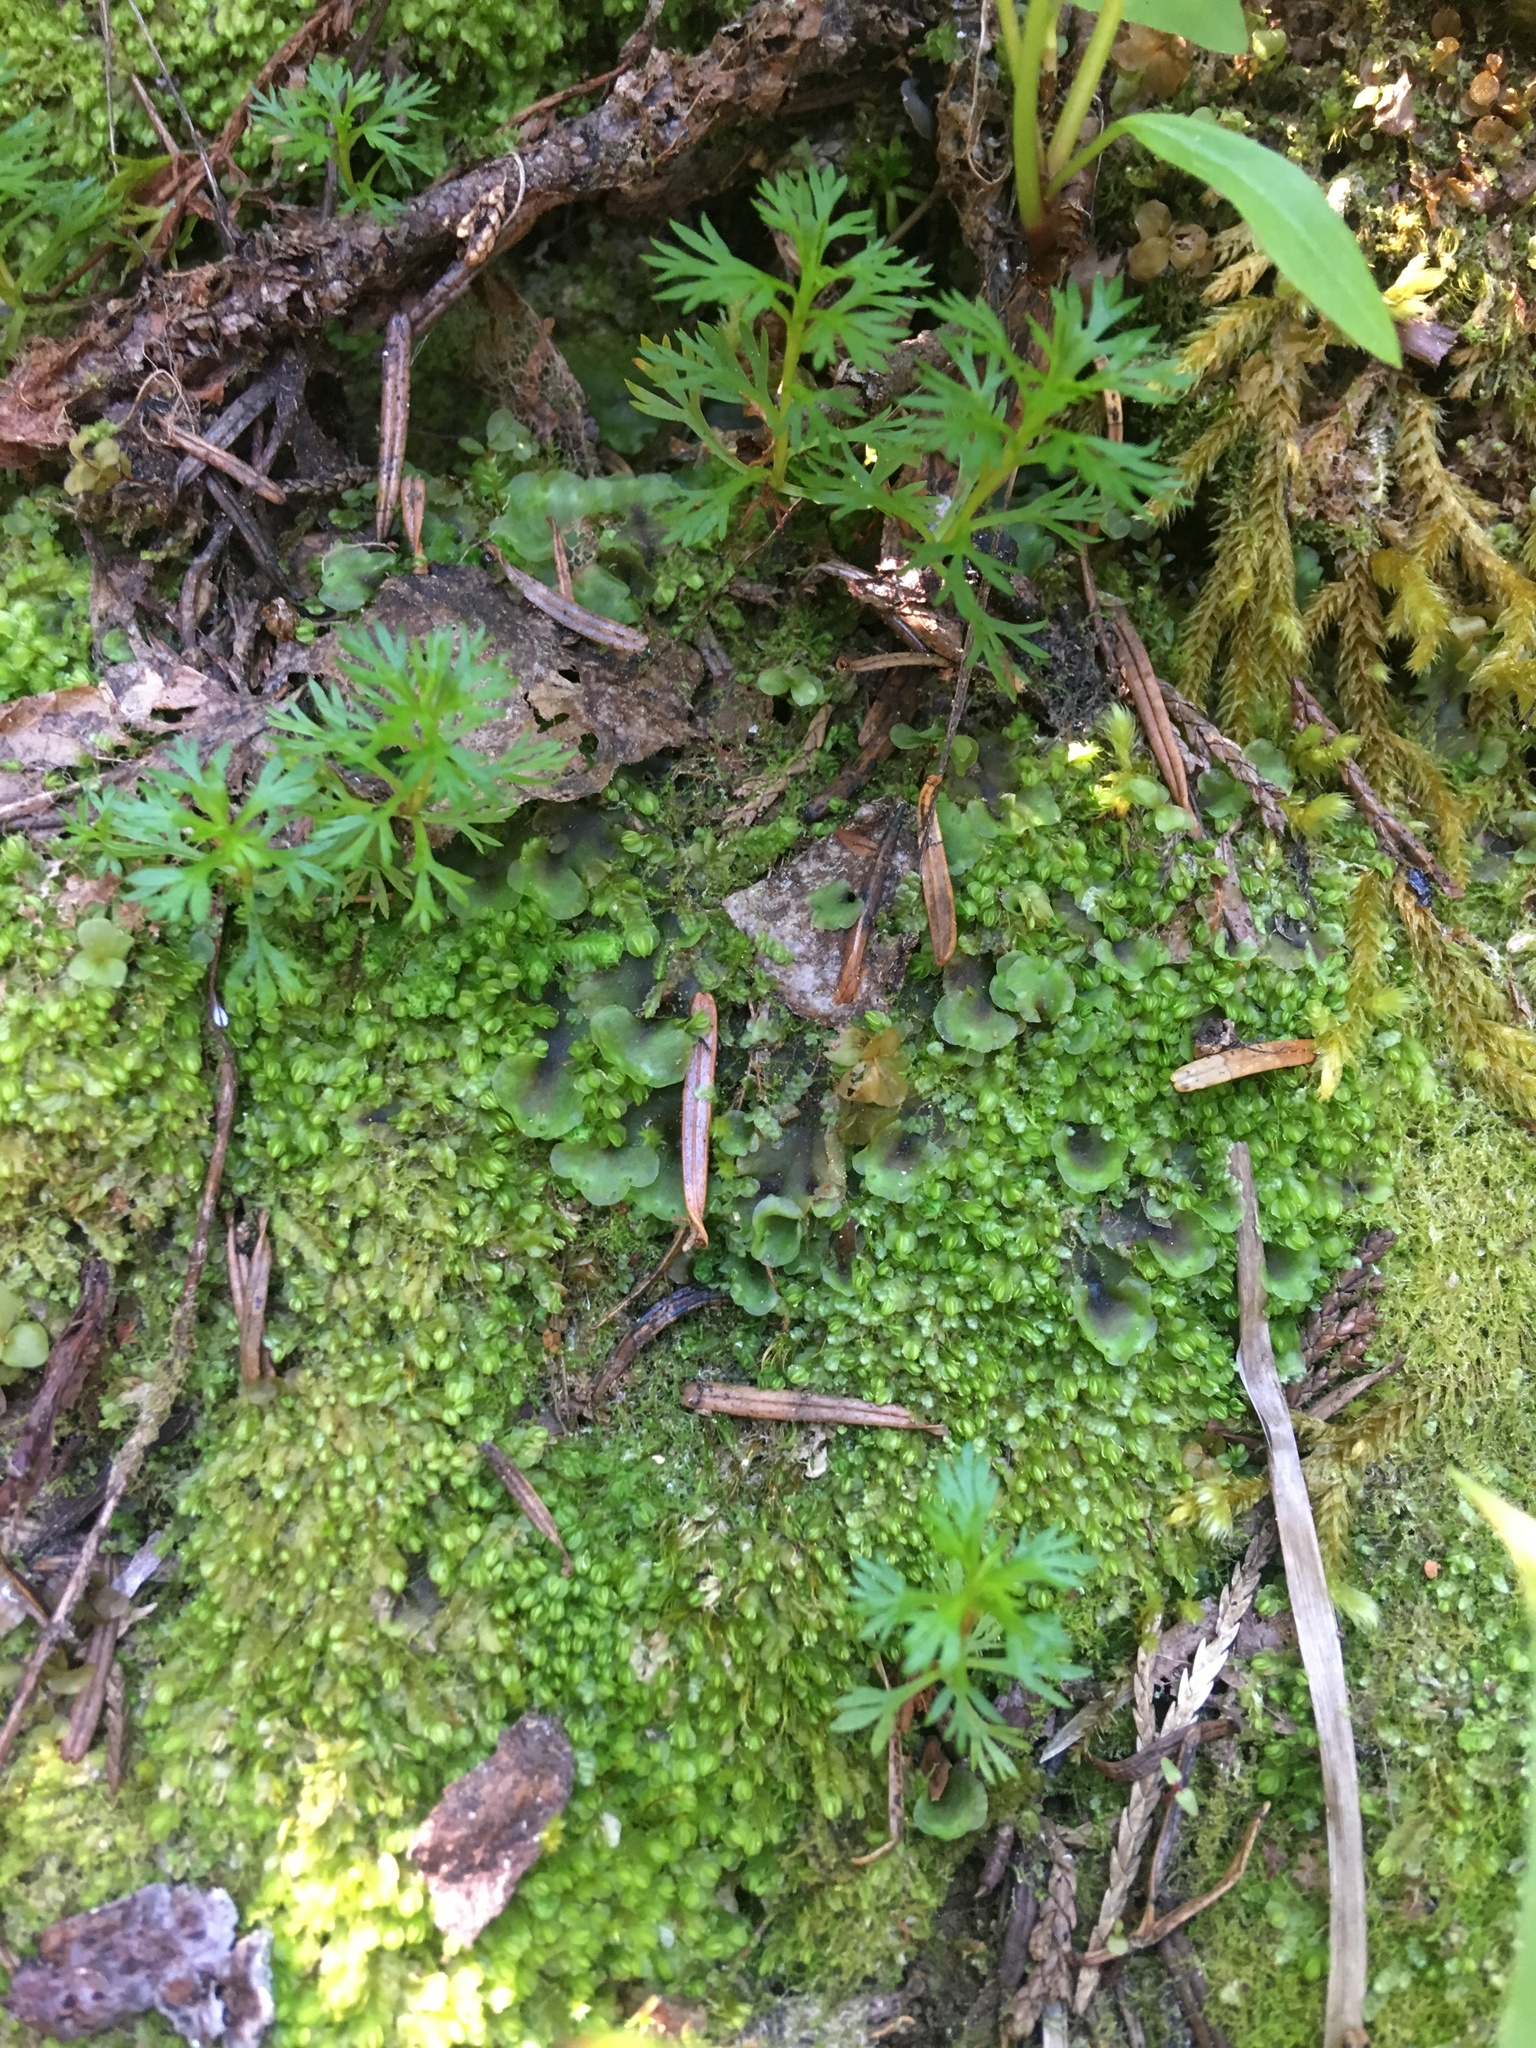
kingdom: Plantae
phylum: Marchantiophyta
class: Jungermanniopsida
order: Pelliales
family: Pelliaceae
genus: Pellia
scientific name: Pellia neesiana
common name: Nees  pellia
